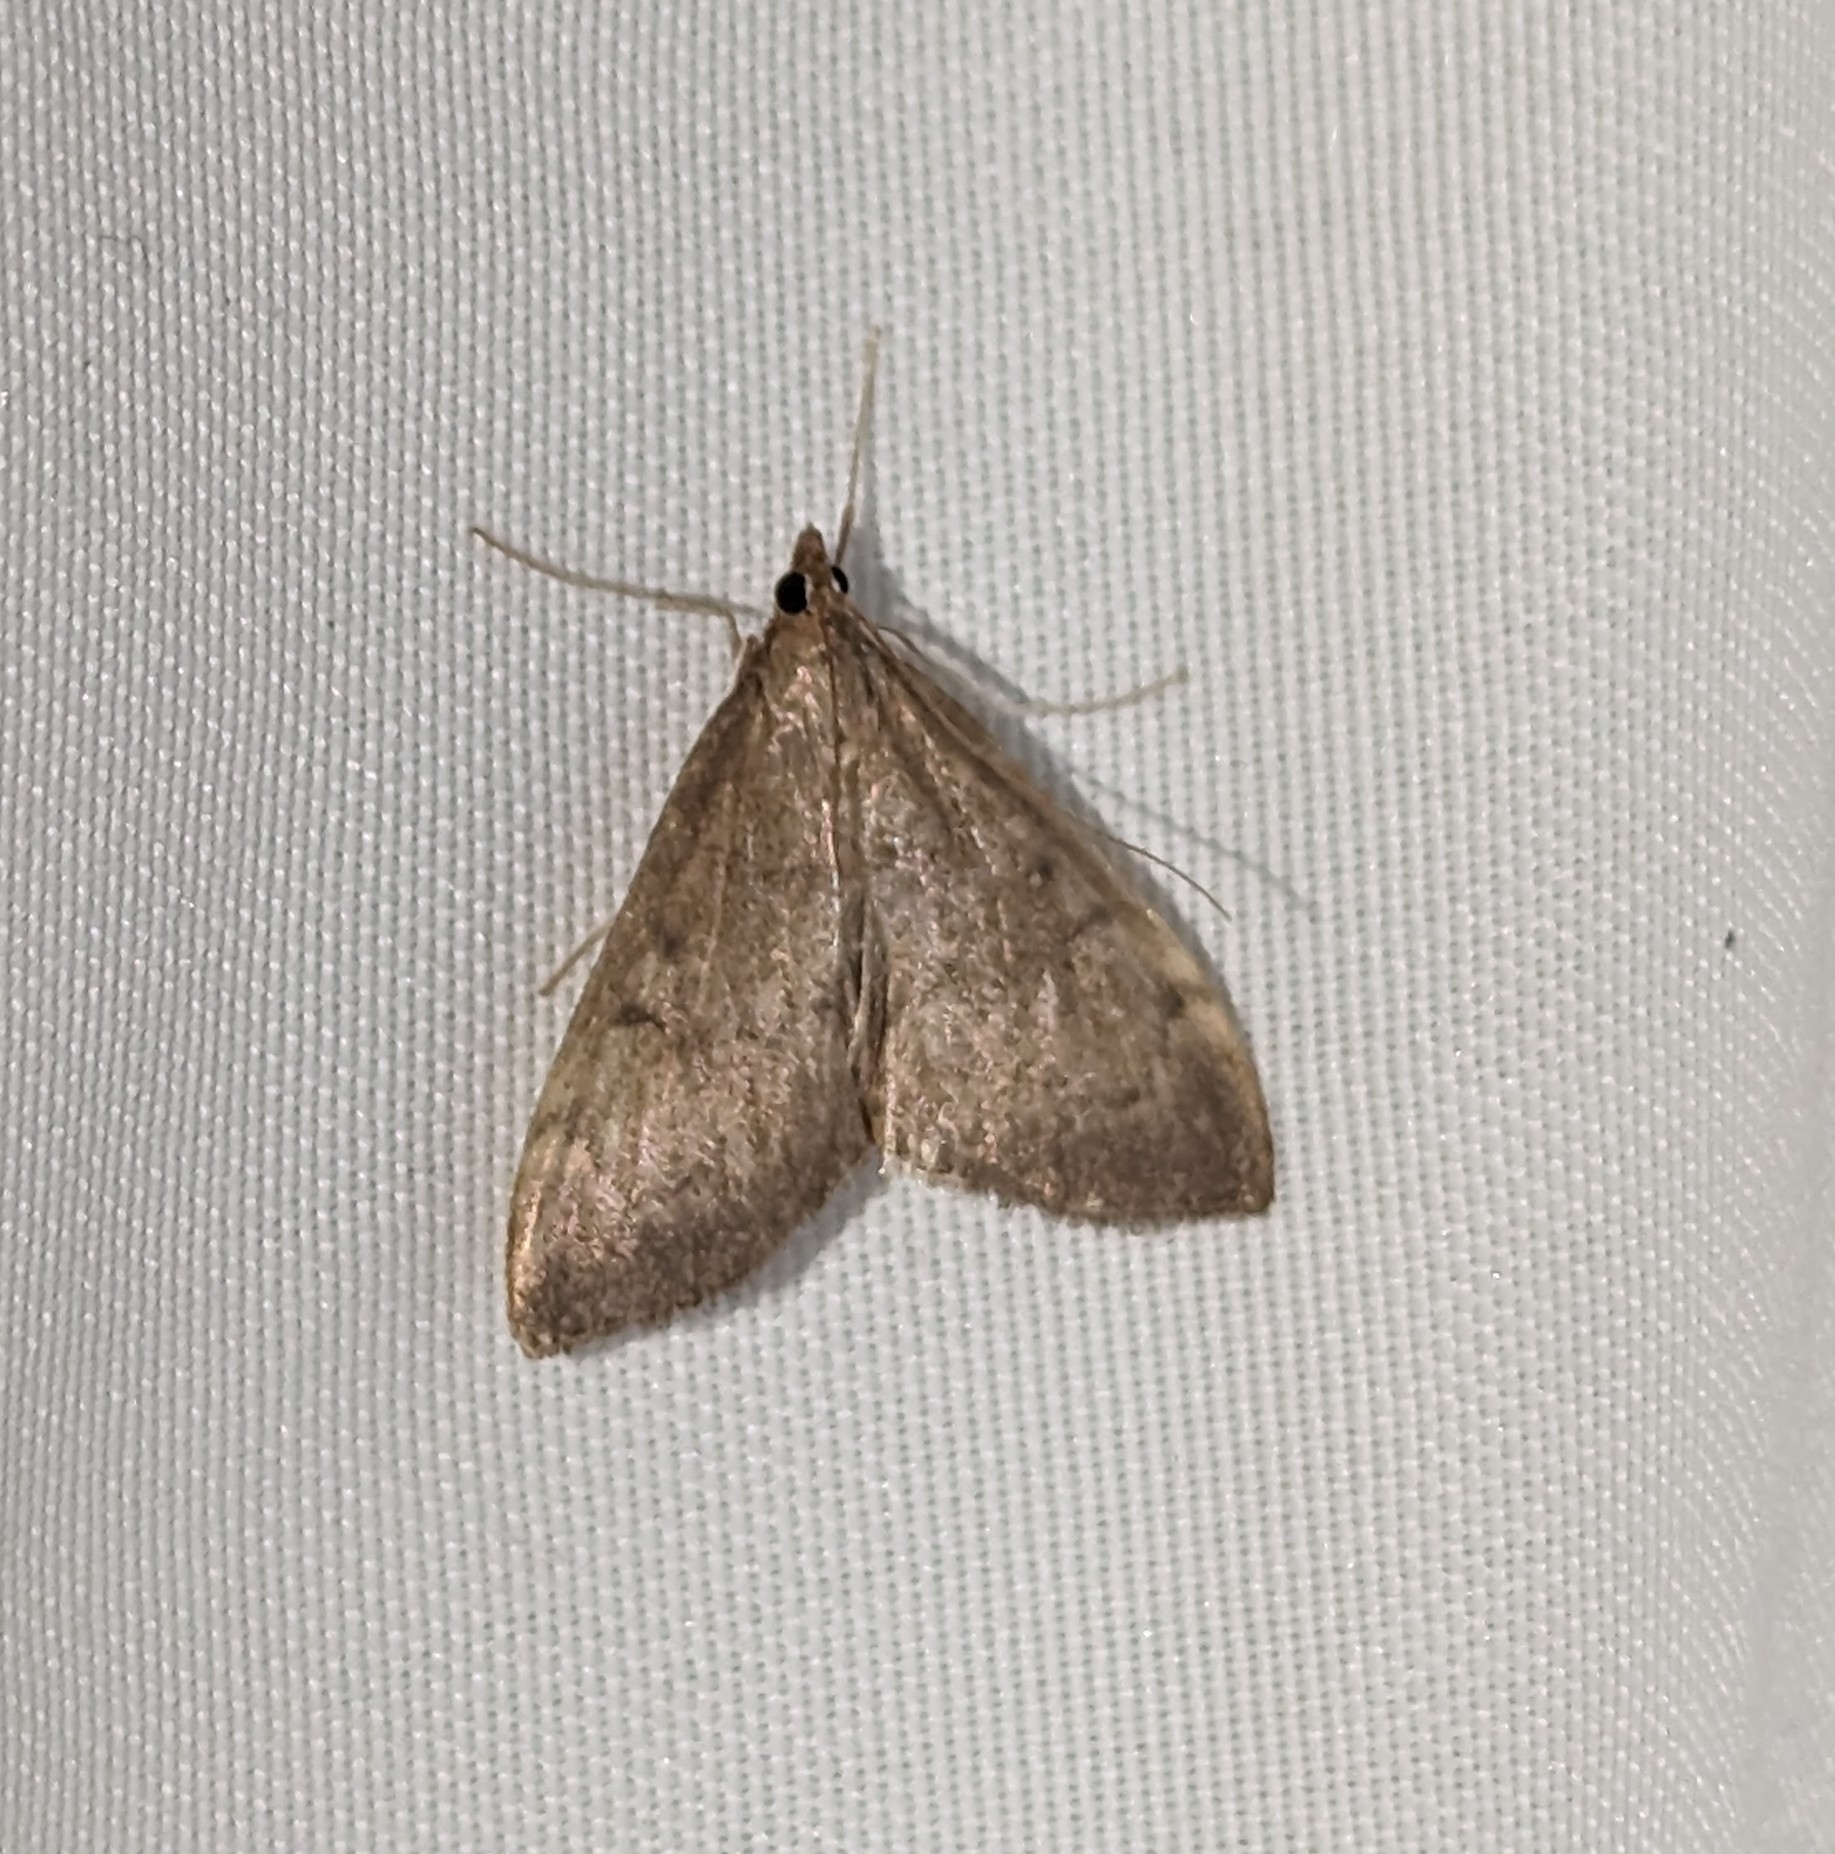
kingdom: Animalia
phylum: Arthropoda
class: Insecta
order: Lepidoptera
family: Crambidae
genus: Anania
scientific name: Anania mysippusalis
